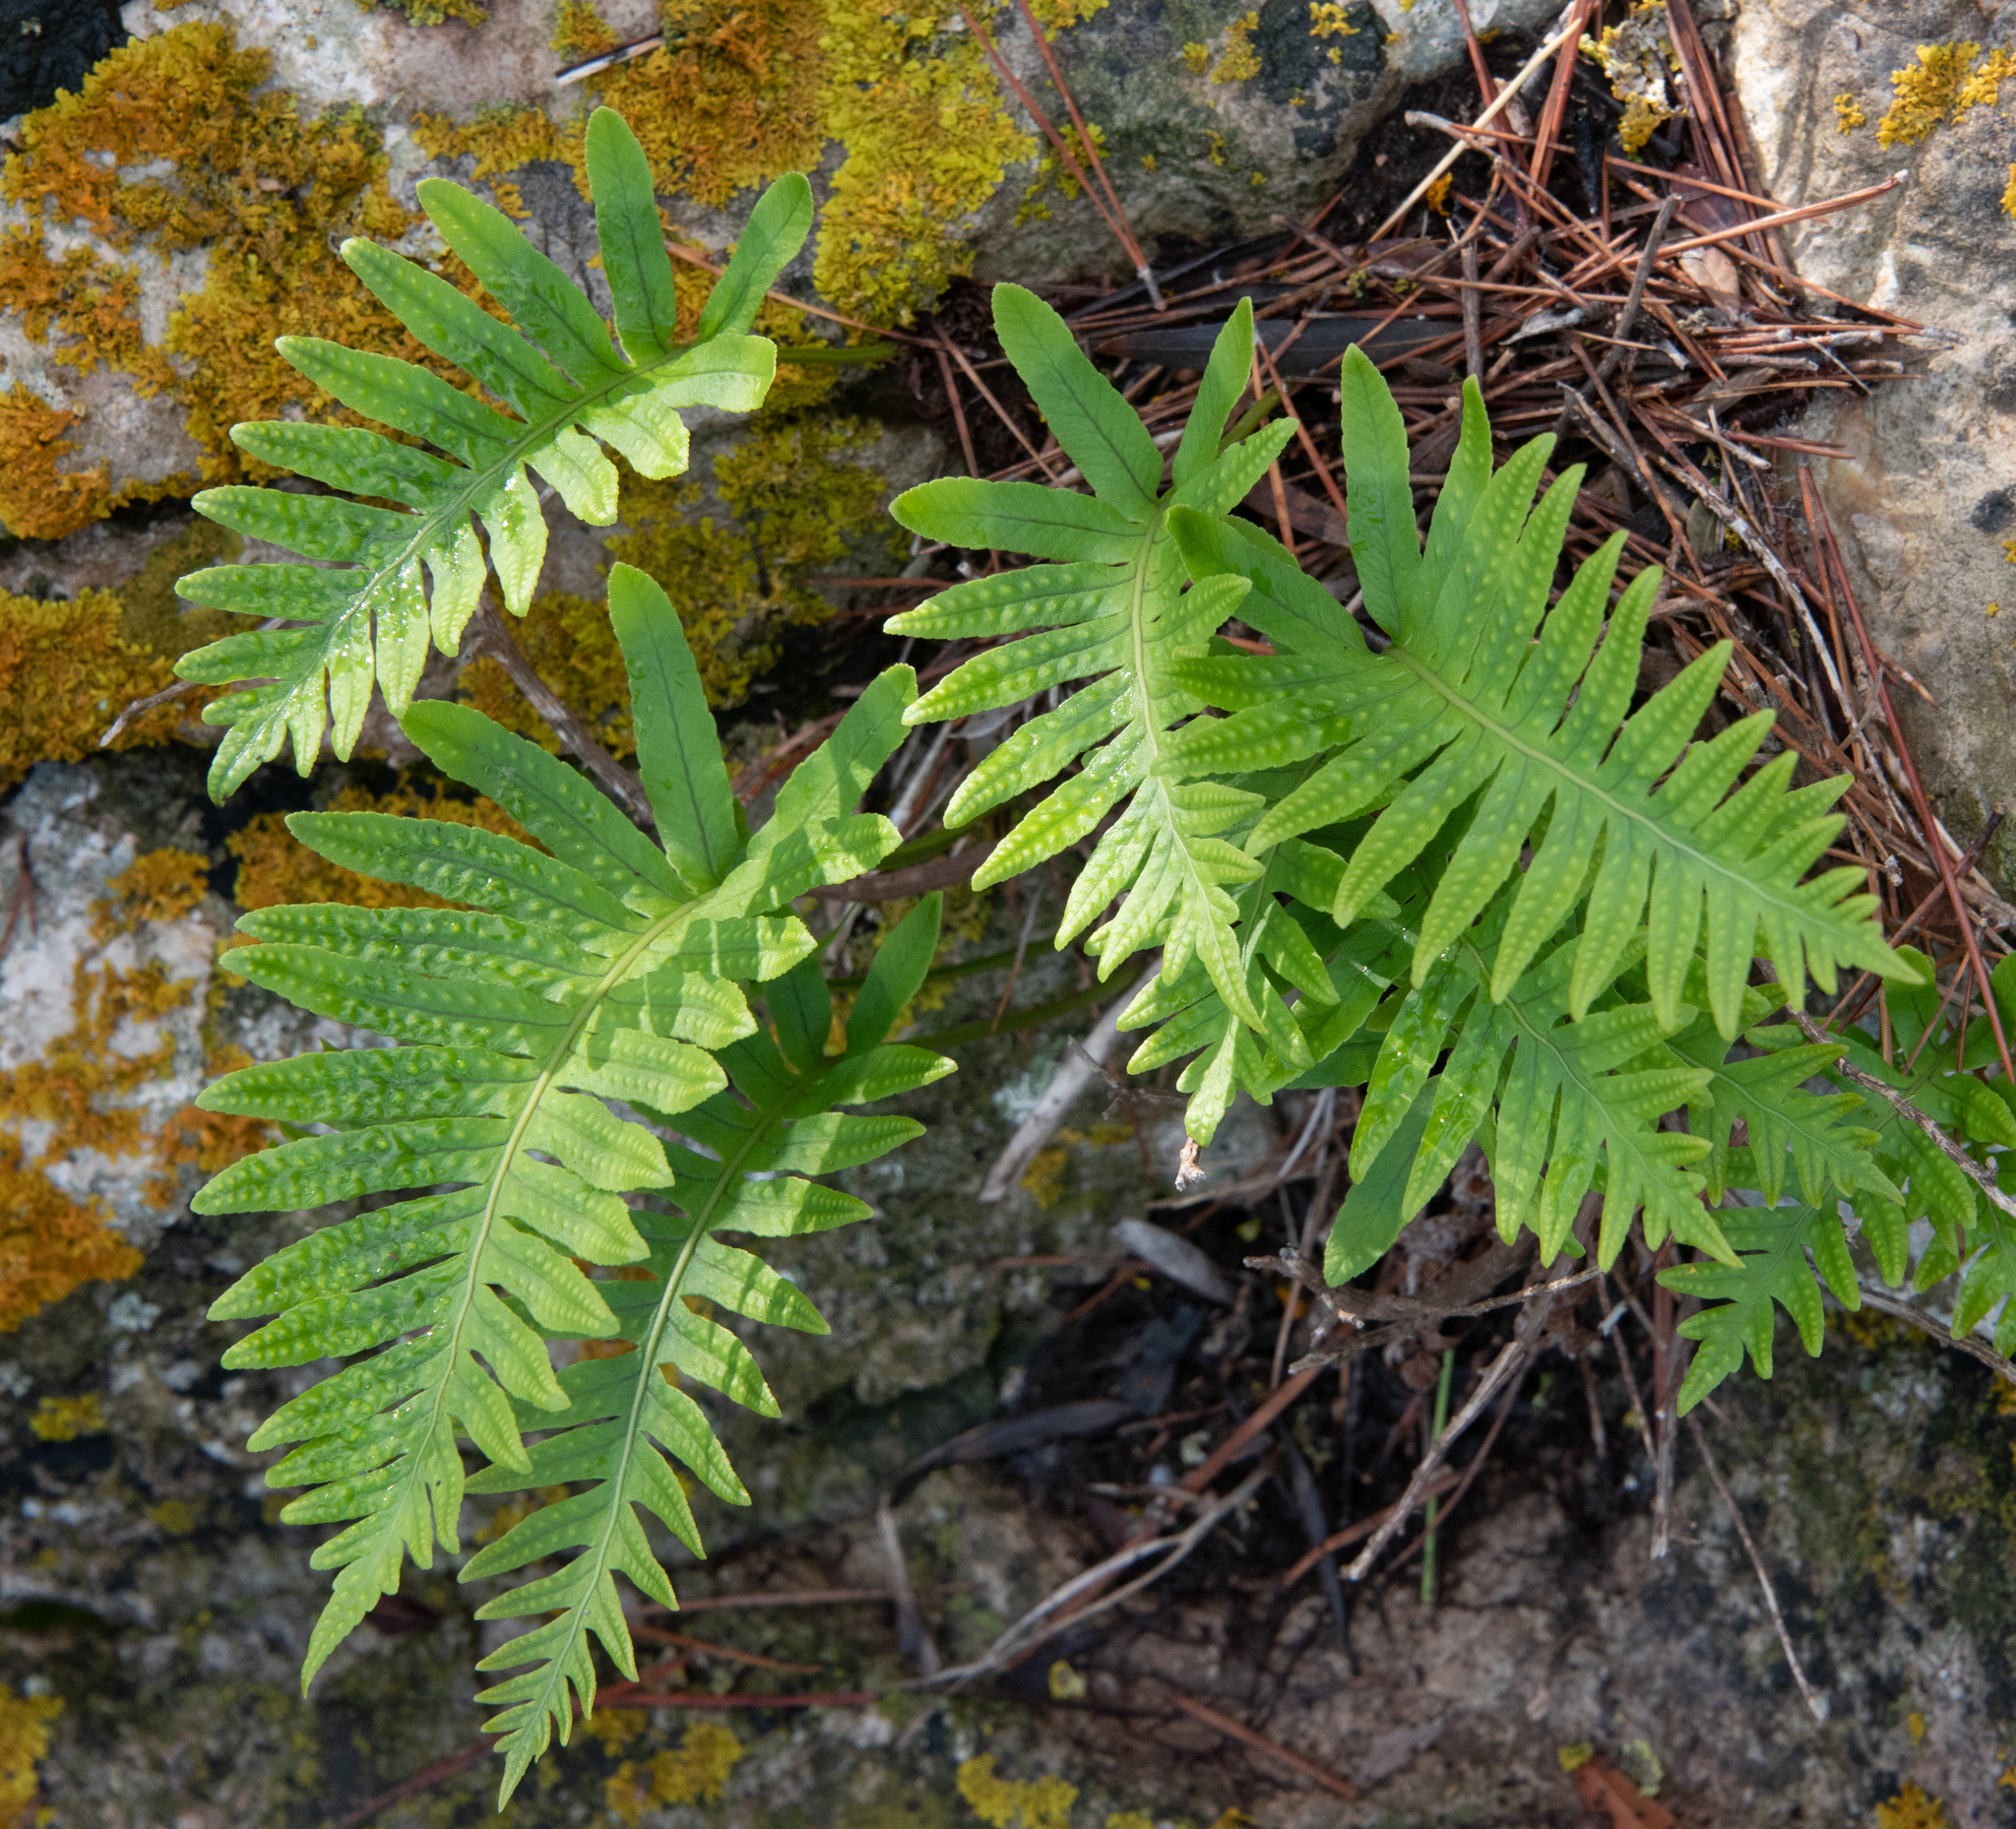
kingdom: Plantae
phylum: Tracheophyta
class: Polypodiopsida
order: Polypodiales
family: Polypodiaceae
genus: Polypodium
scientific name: Polypodium cambricum
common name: Southern polypody
